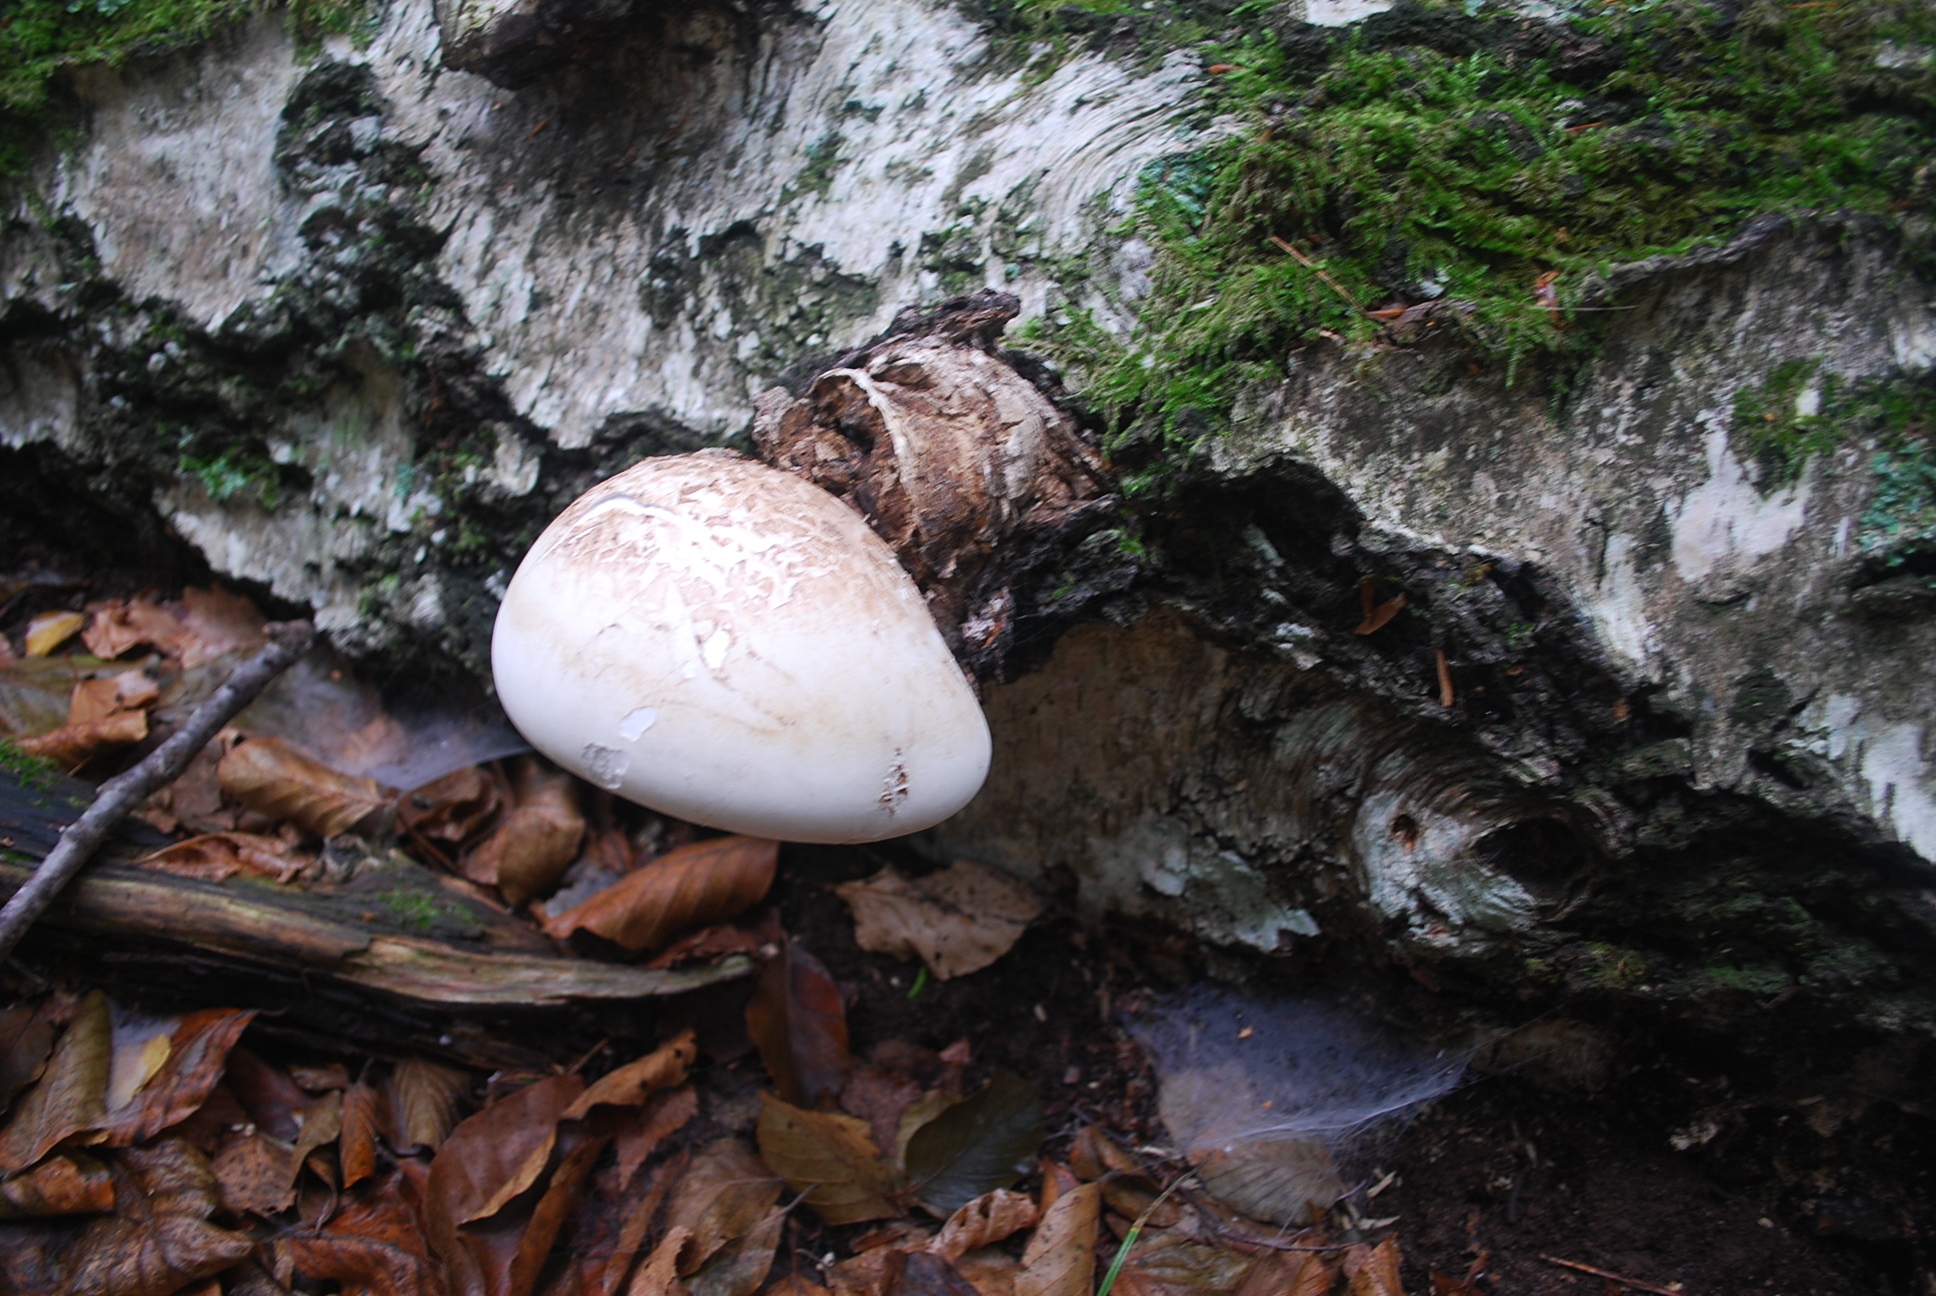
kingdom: Fungi
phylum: Basidiomycota
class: Agaricomycetes
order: Polyporales
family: Fomitopsidaceae
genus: Fomitopsis
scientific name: Fomitopsis betulina
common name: Birch polypore
